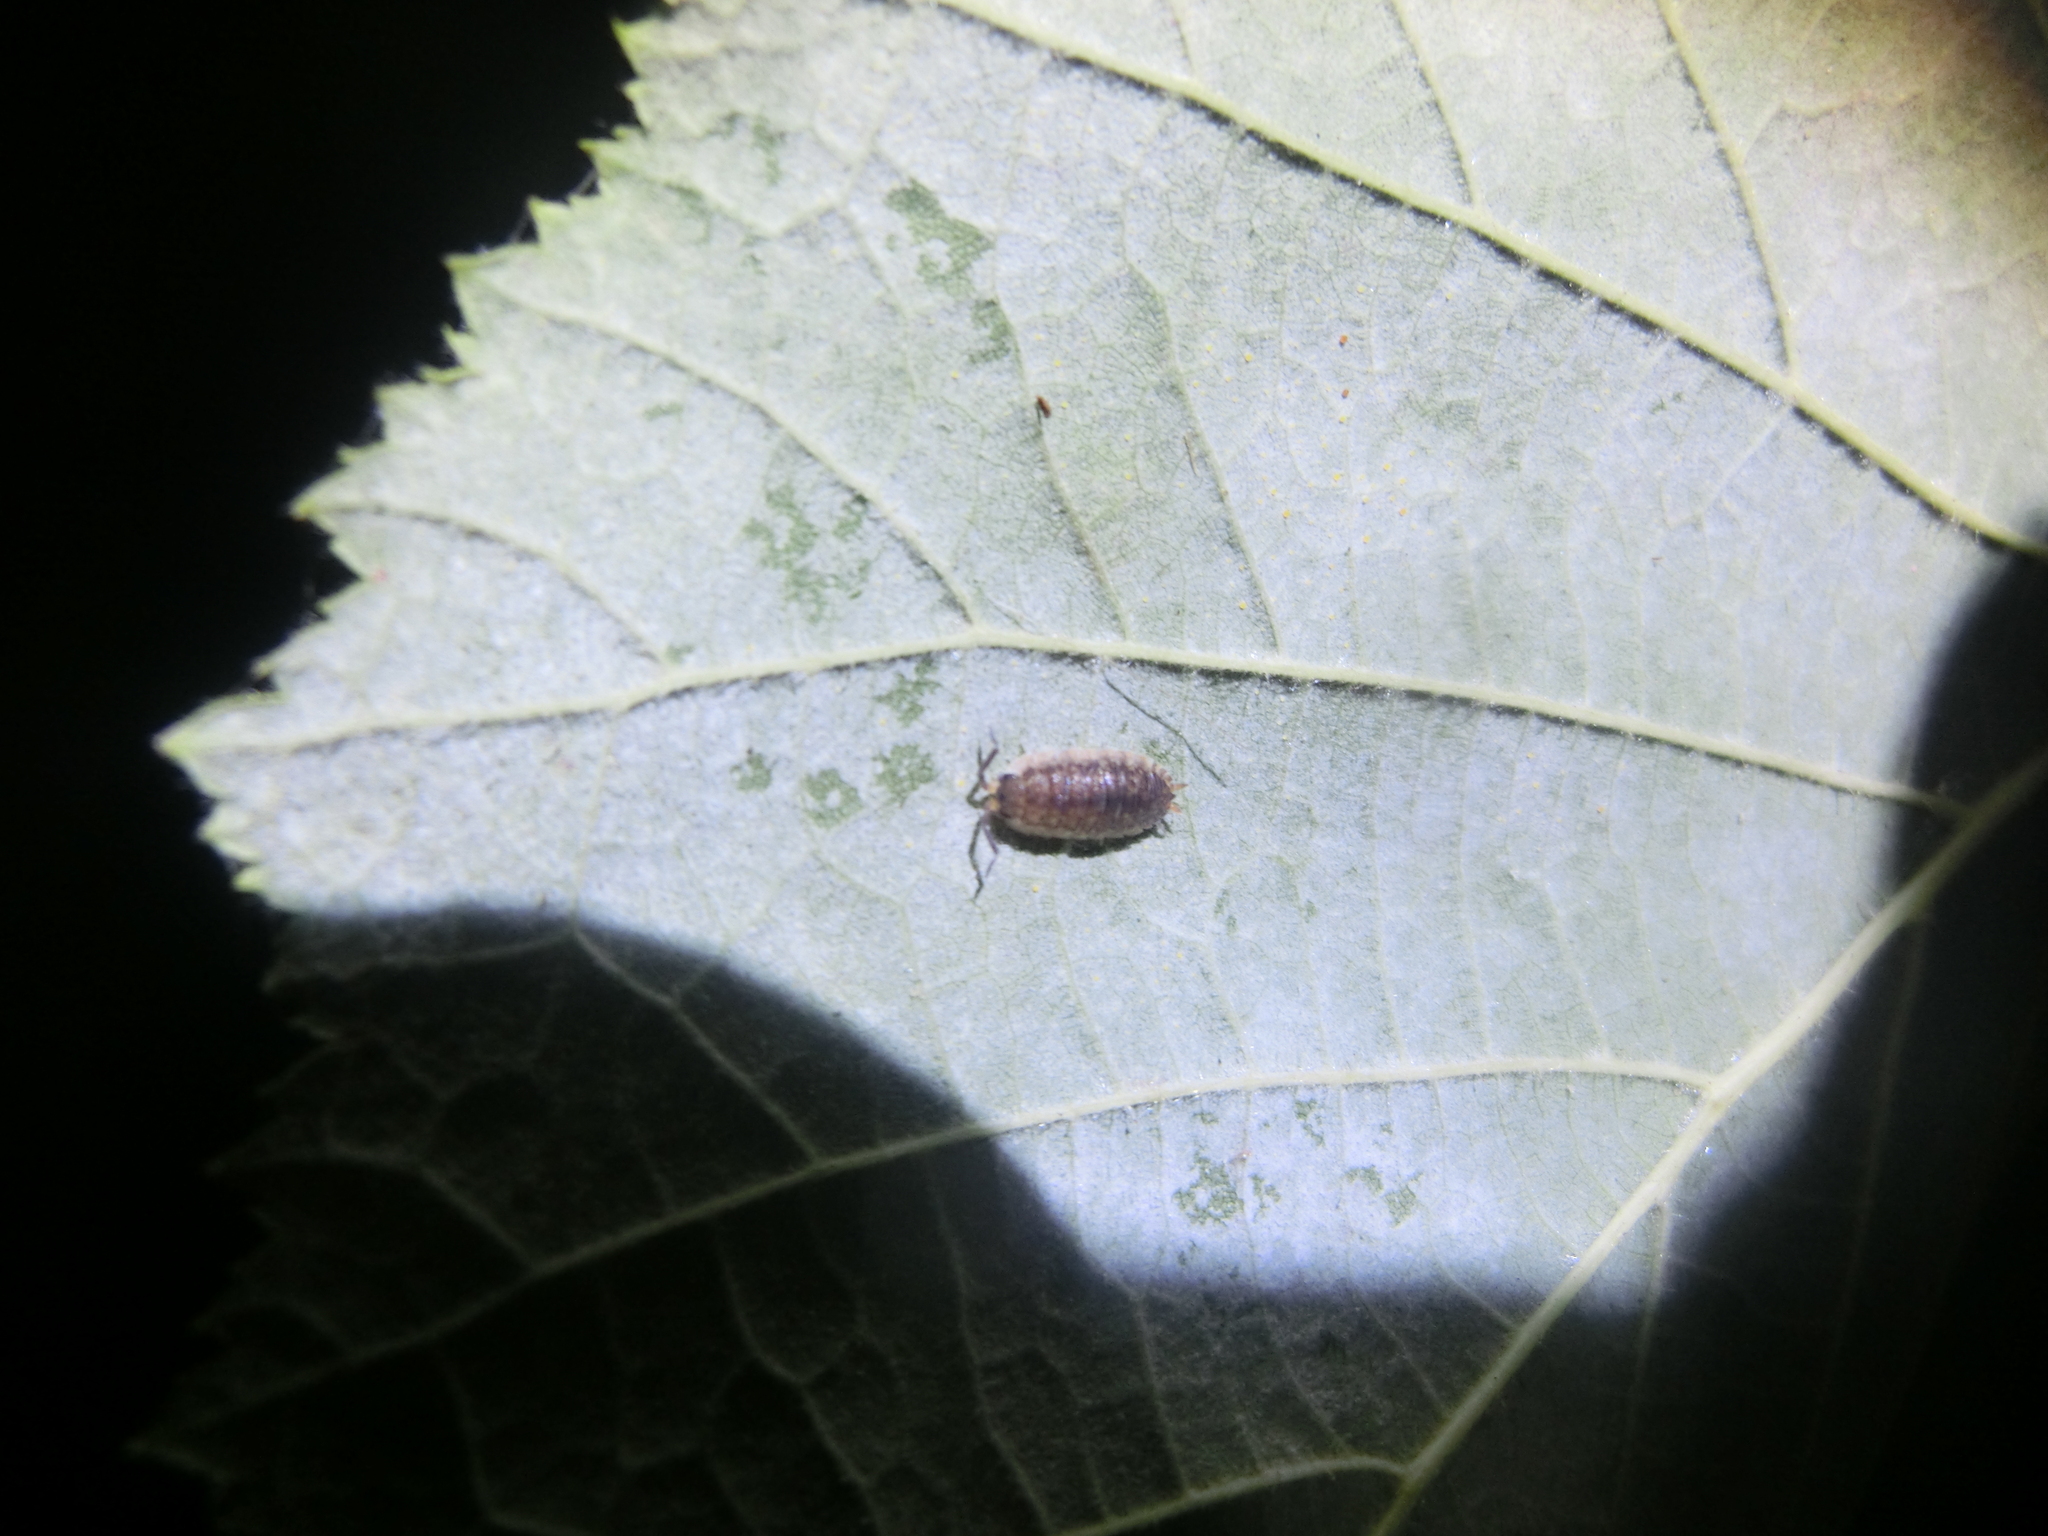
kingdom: Animalia
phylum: Arthropoda
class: Malacostraca
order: Isopoda
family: Porcellionidae
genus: Porcellio
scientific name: Porcellio scaber
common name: Common rough woodlouse
